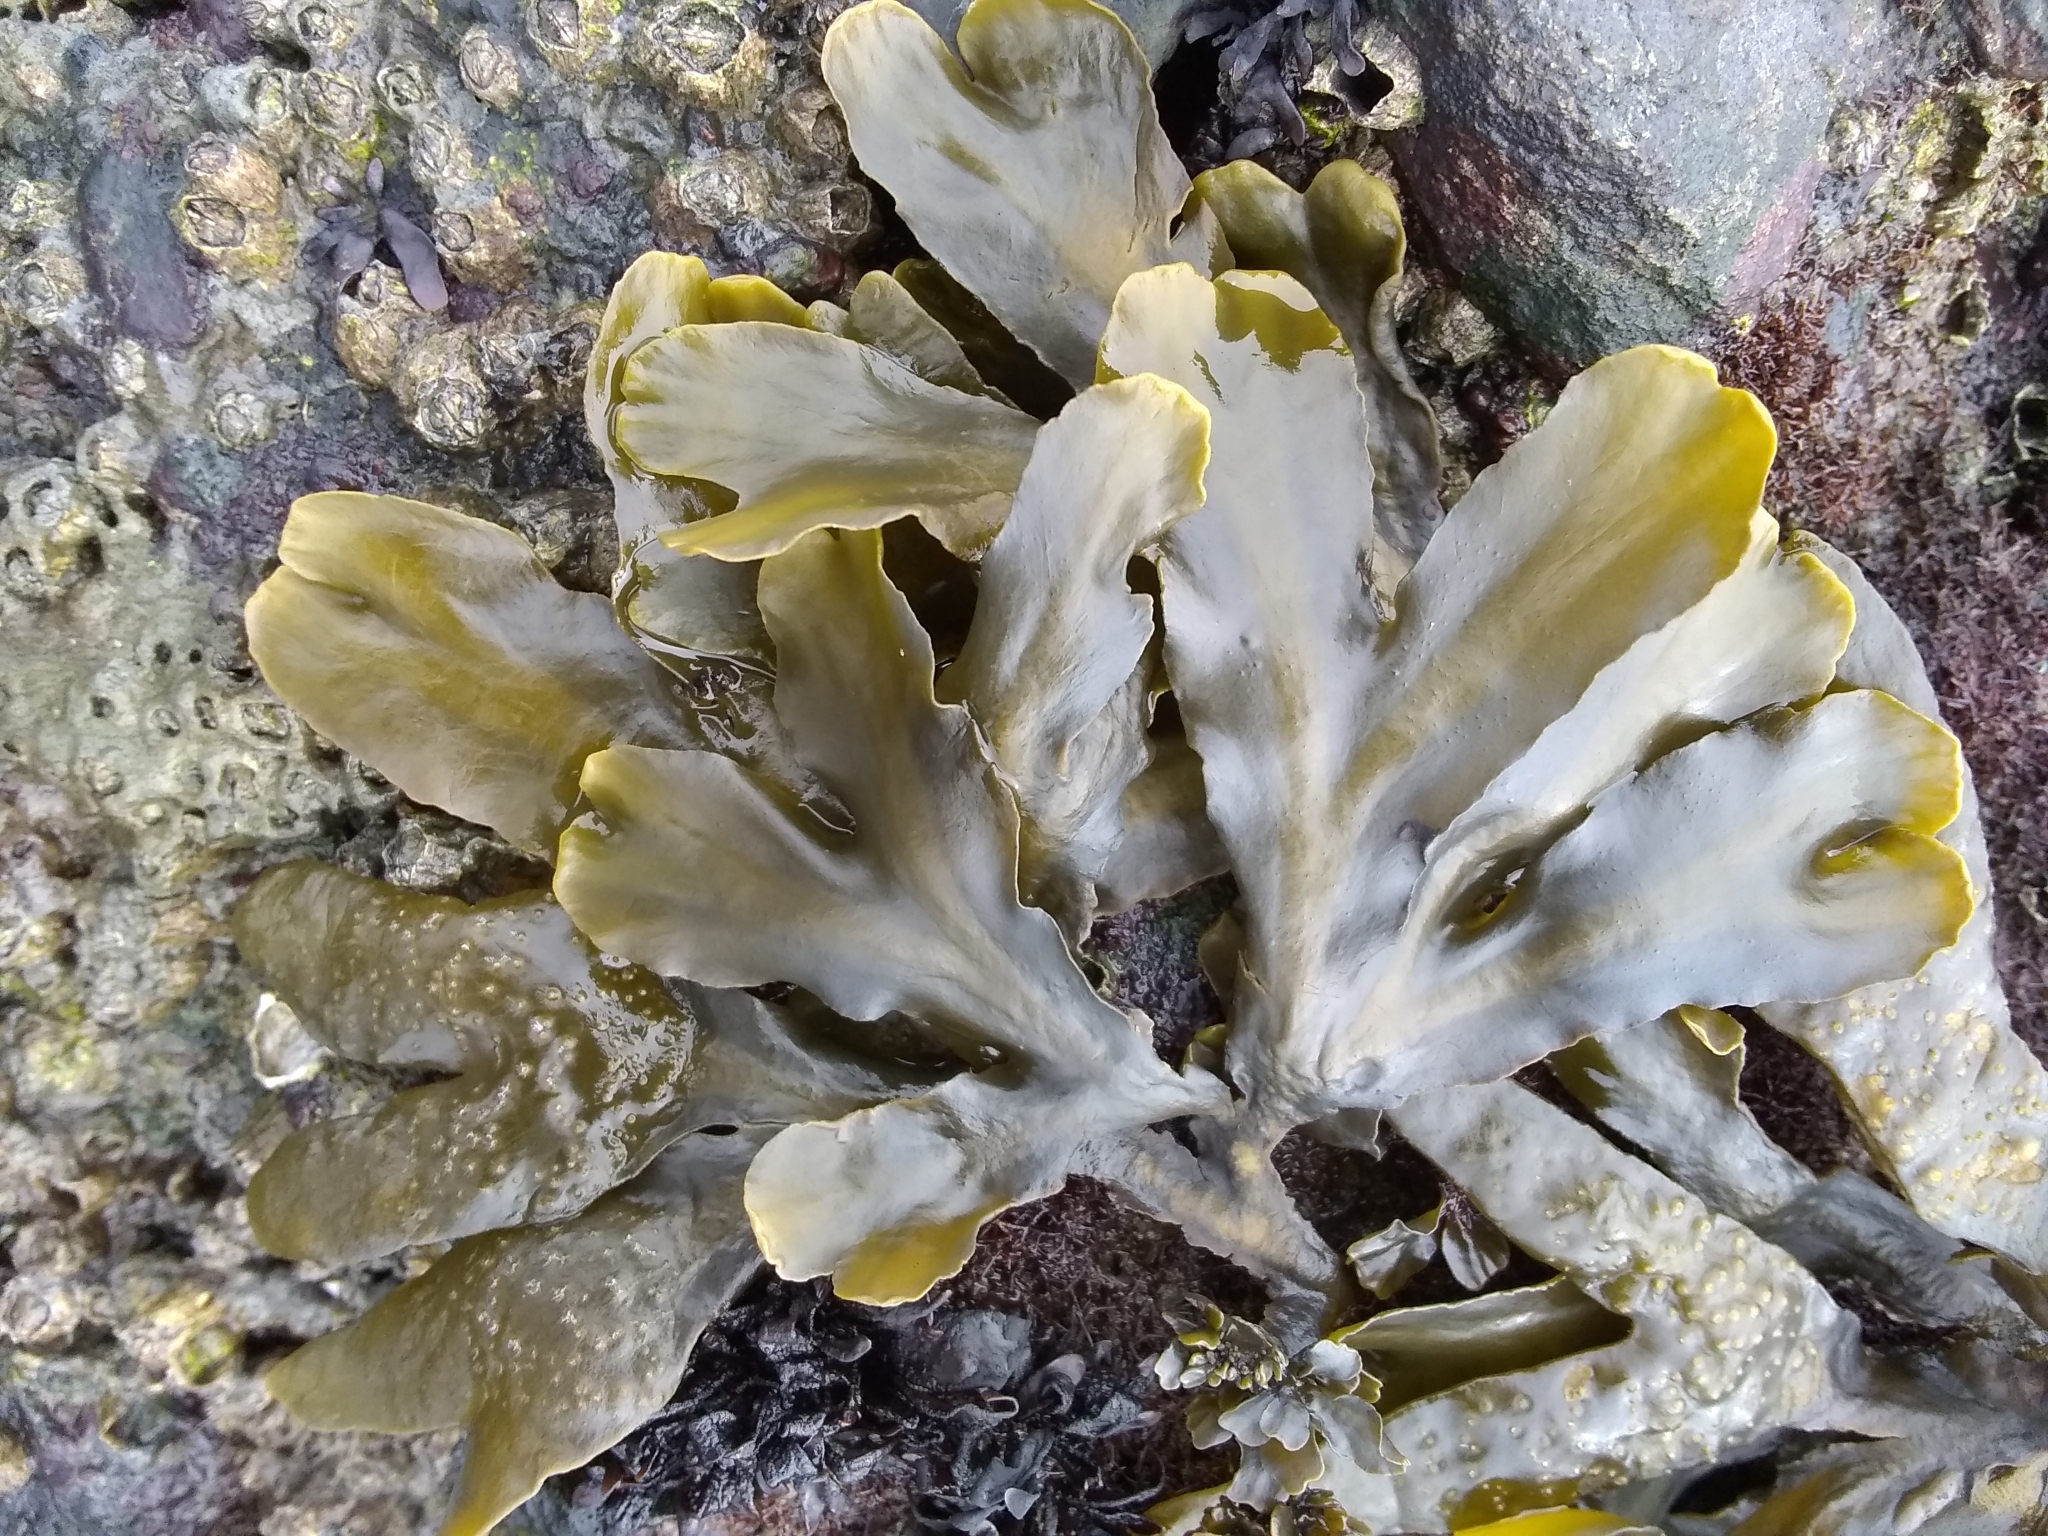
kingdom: Chromista
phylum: Ochrophyta
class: Phaeophyceae
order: Fucales
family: Fucaceae
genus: Fucus
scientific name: Fucus distichus
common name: Rockweed
